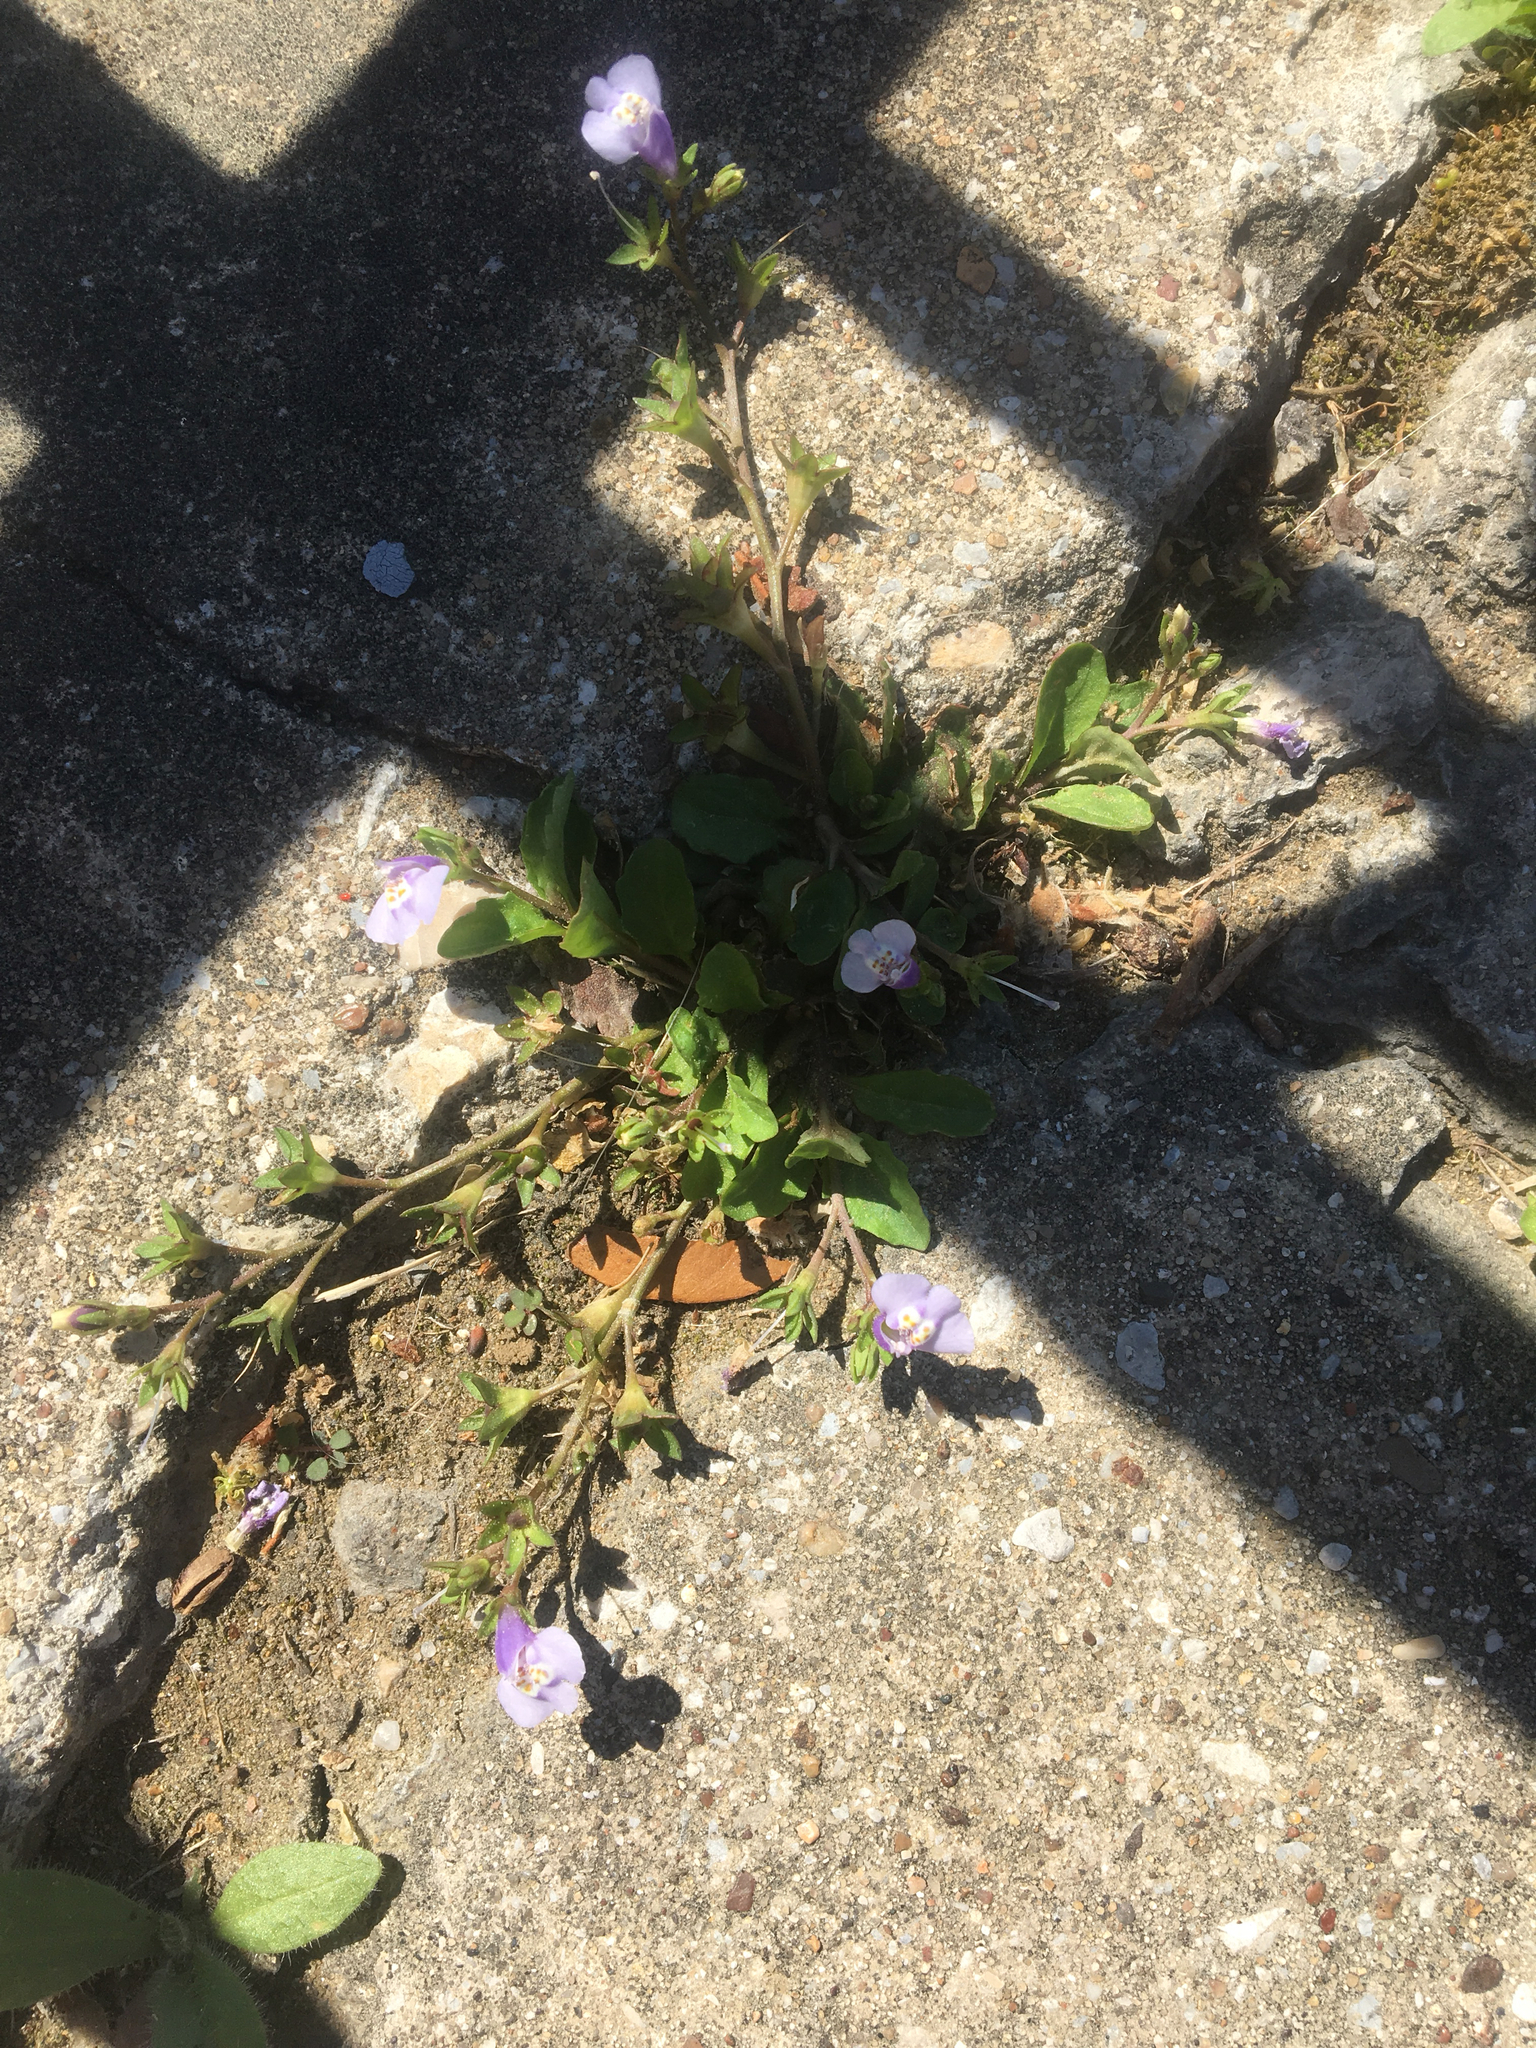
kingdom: Plantae
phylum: Tracheophyta
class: Magnoliopsida
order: Lamiales
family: Mazaceae
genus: Mazus
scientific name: Mazus pumilus
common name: Japanese mazus
